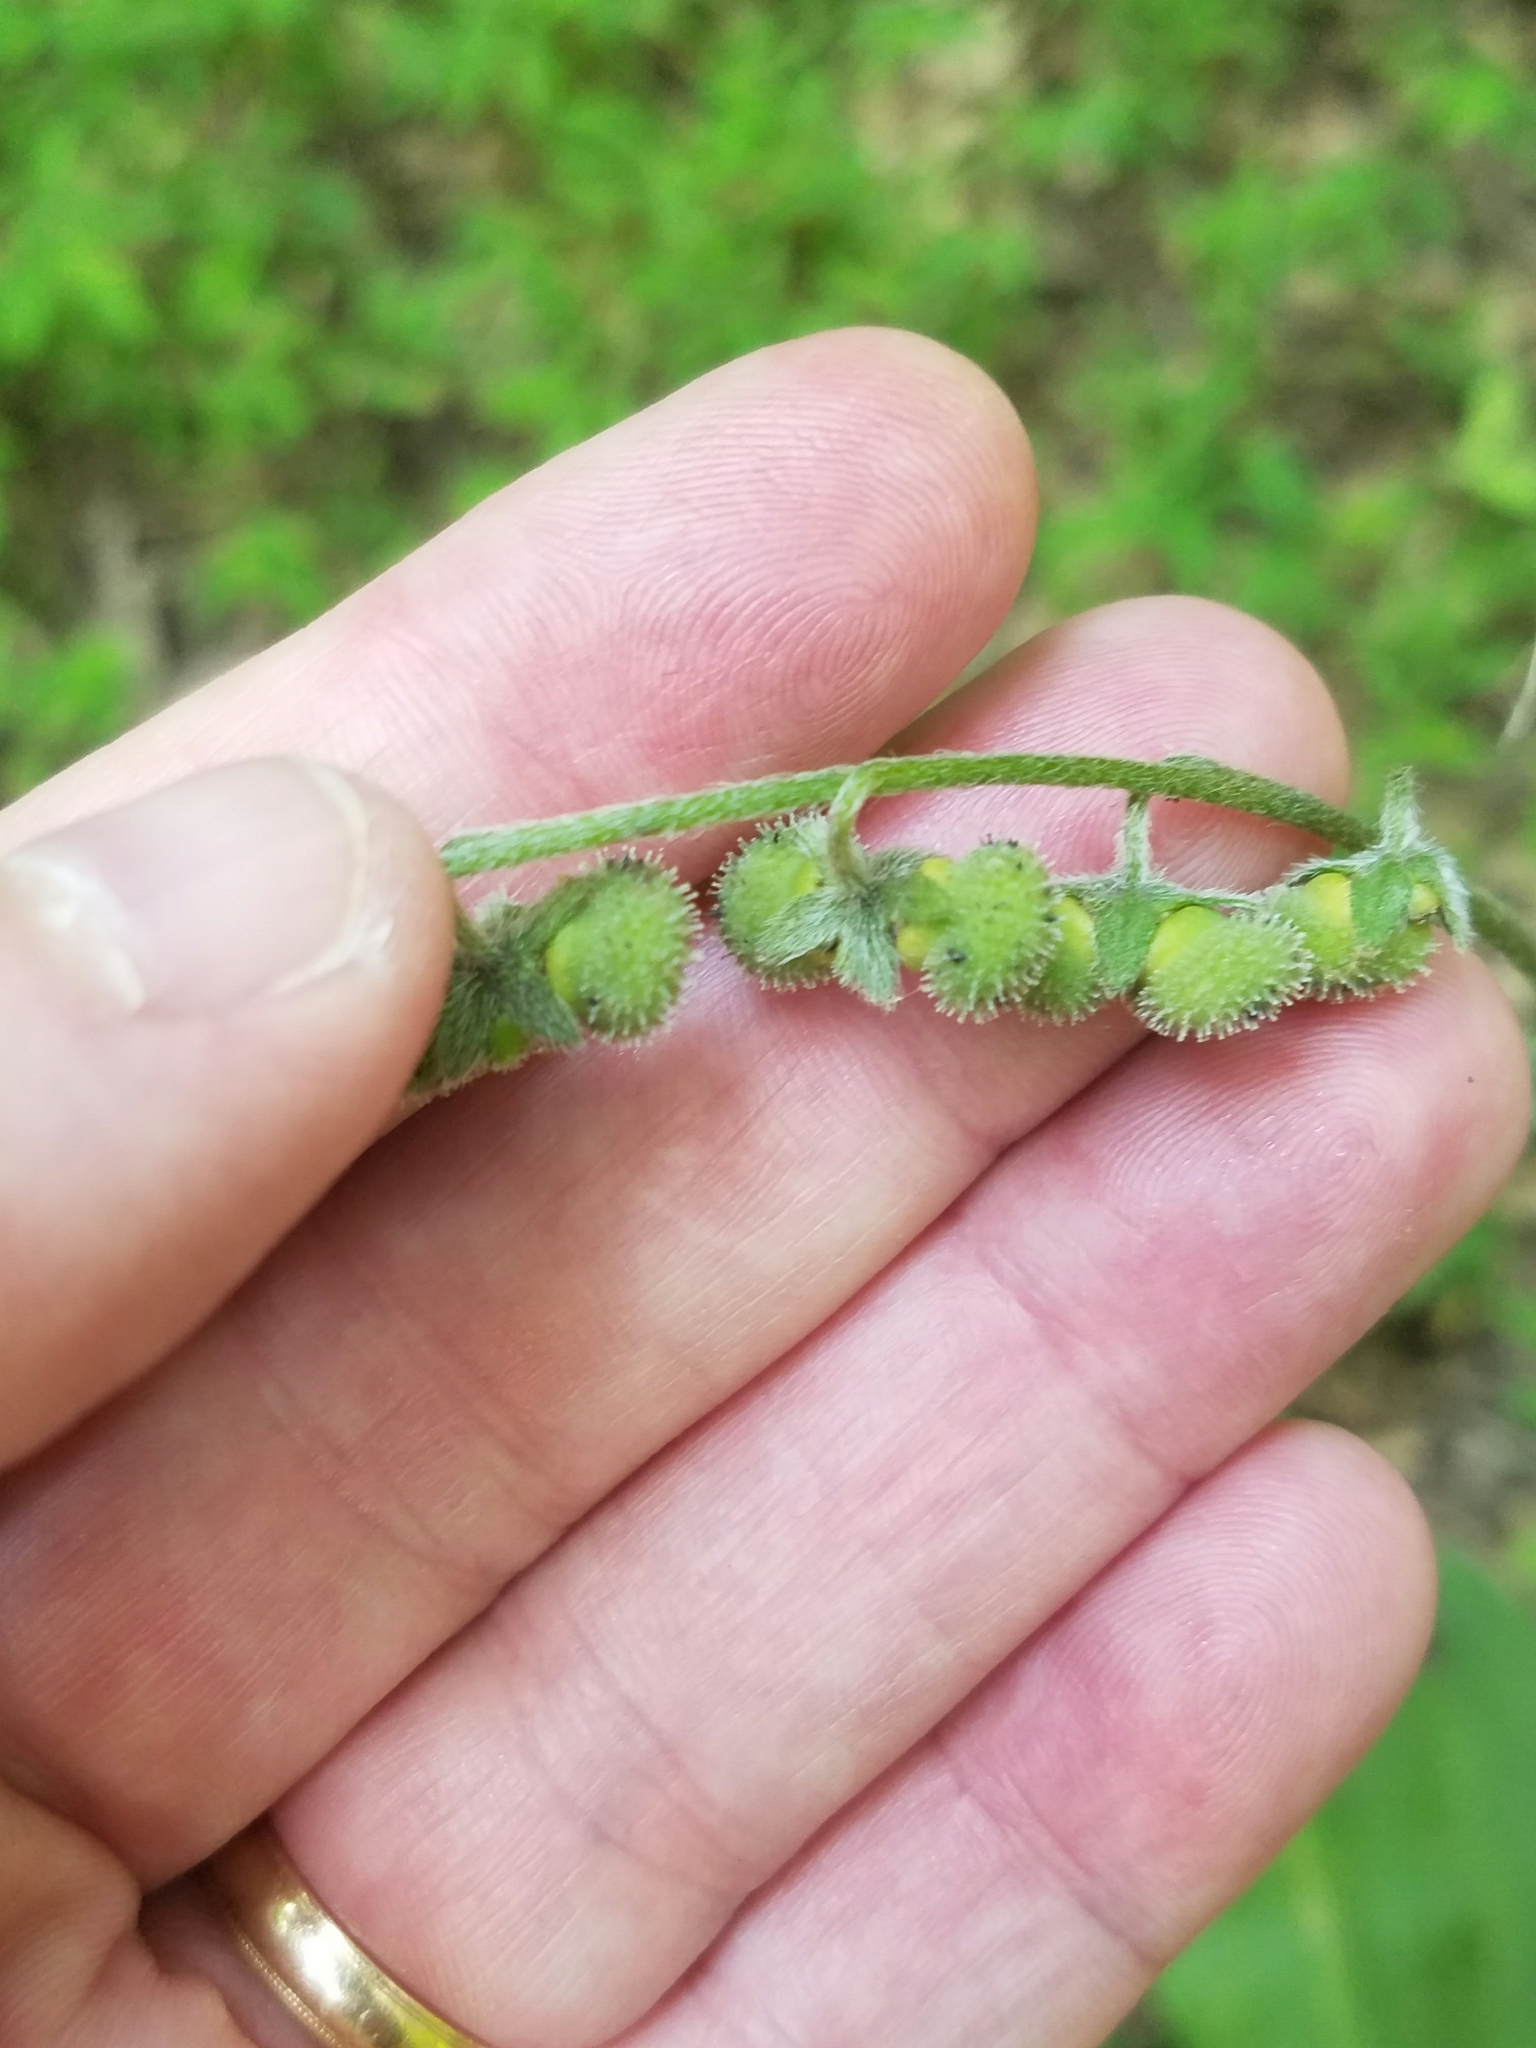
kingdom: Plantae
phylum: Tracheophyta
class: Magnoliopsida
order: Boraginales
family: Boraginaceae
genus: Andersonglossum
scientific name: Andersonglossum virginianum
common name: Wild comfrey
